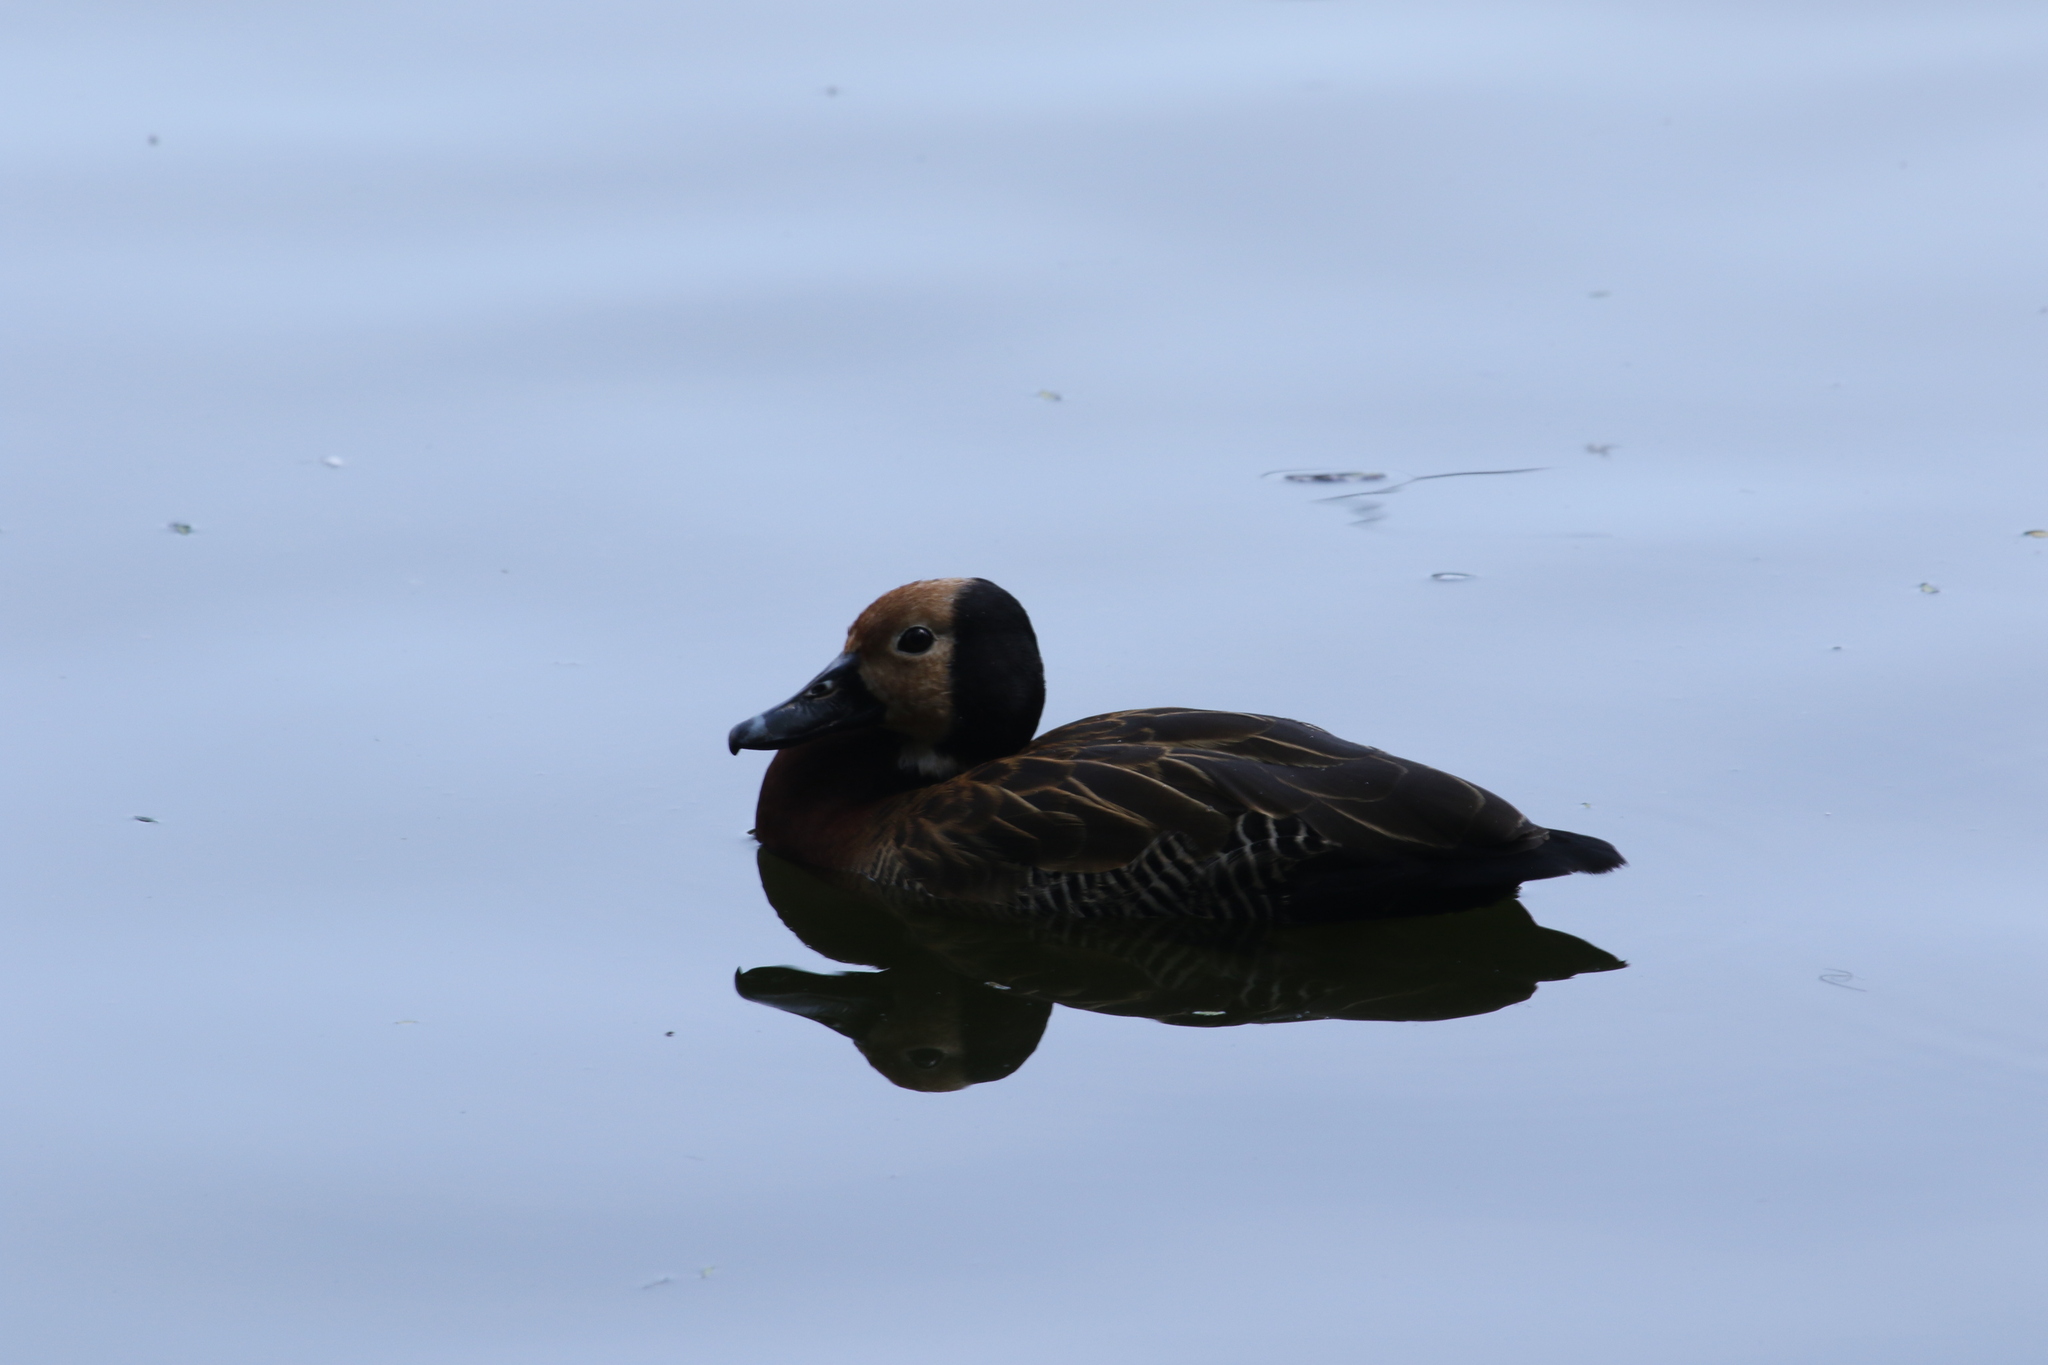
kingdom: Animalia
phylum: Chordata
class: Aves
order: Anseriformes
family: Anatidae
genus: Dendrocygna
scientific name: Dendrocygna viduata
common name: White-faced whistling duck
